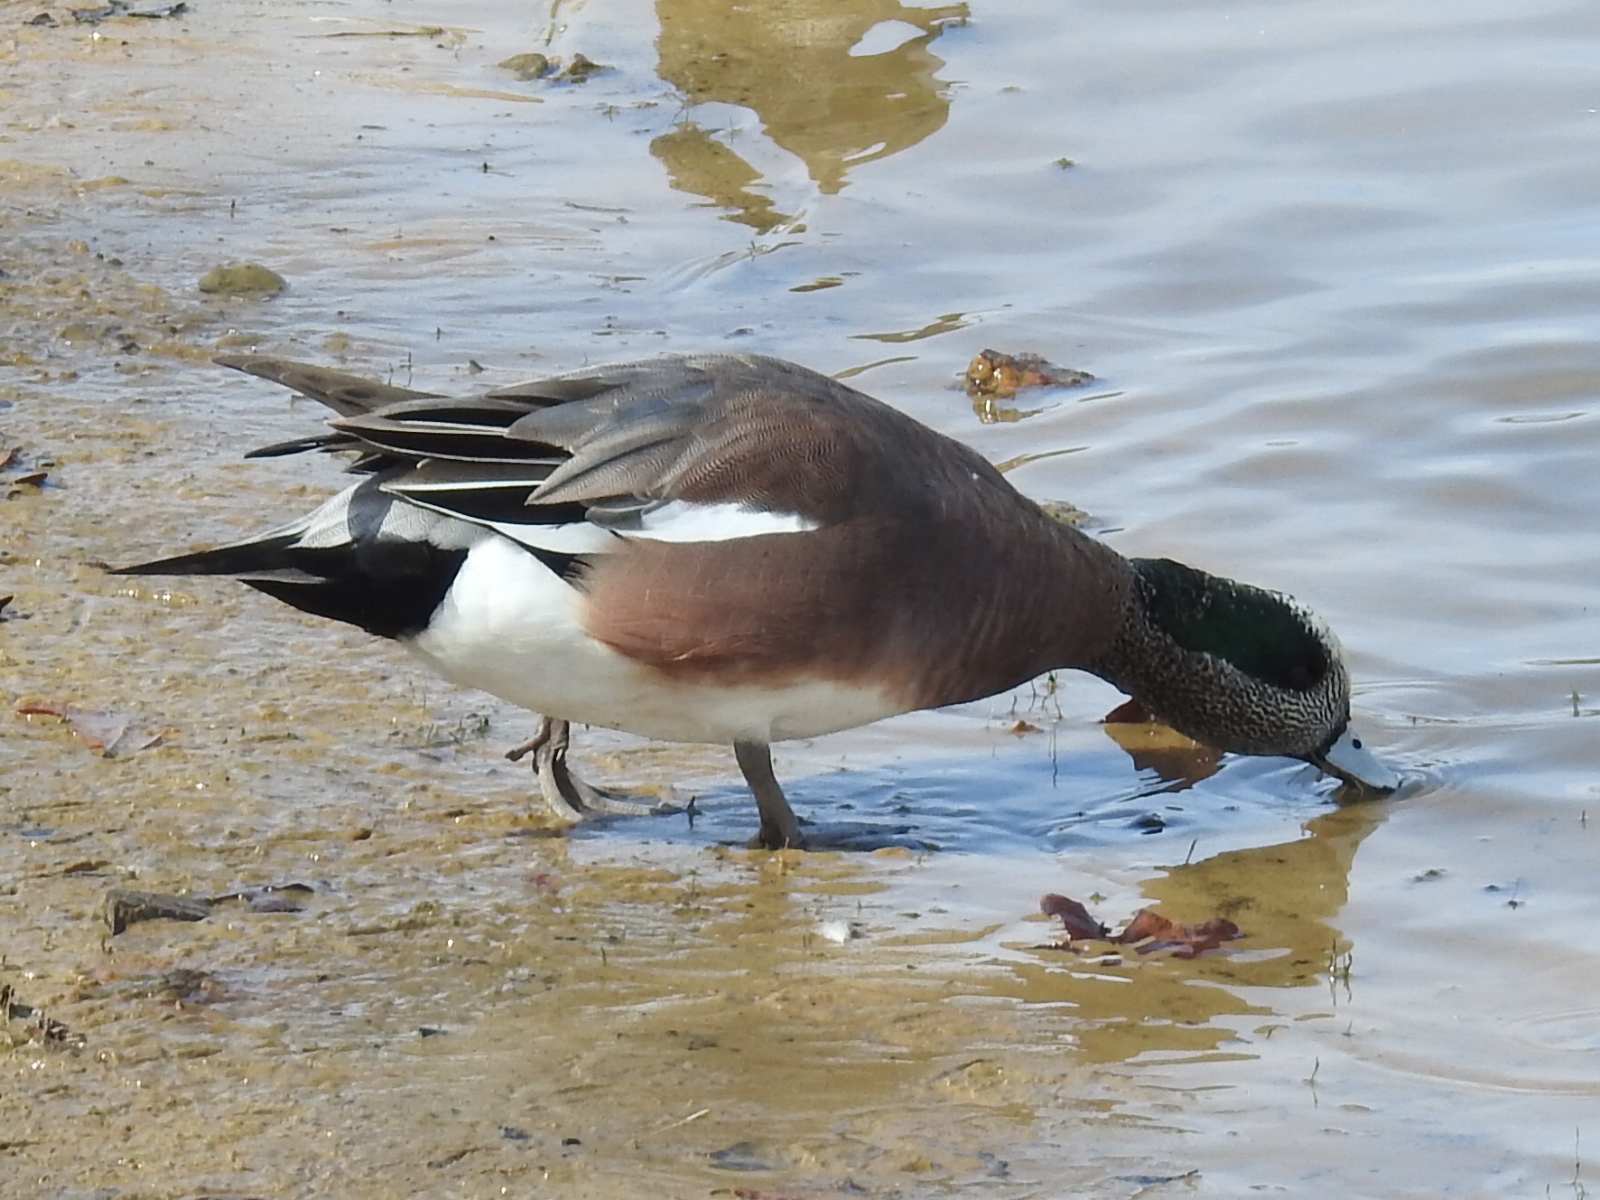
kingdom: Animalia
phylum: Chordata
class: Aves
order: Anseriformes
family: Anatidae
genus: Mareca
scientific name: Mareca americana
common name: American wigeon
